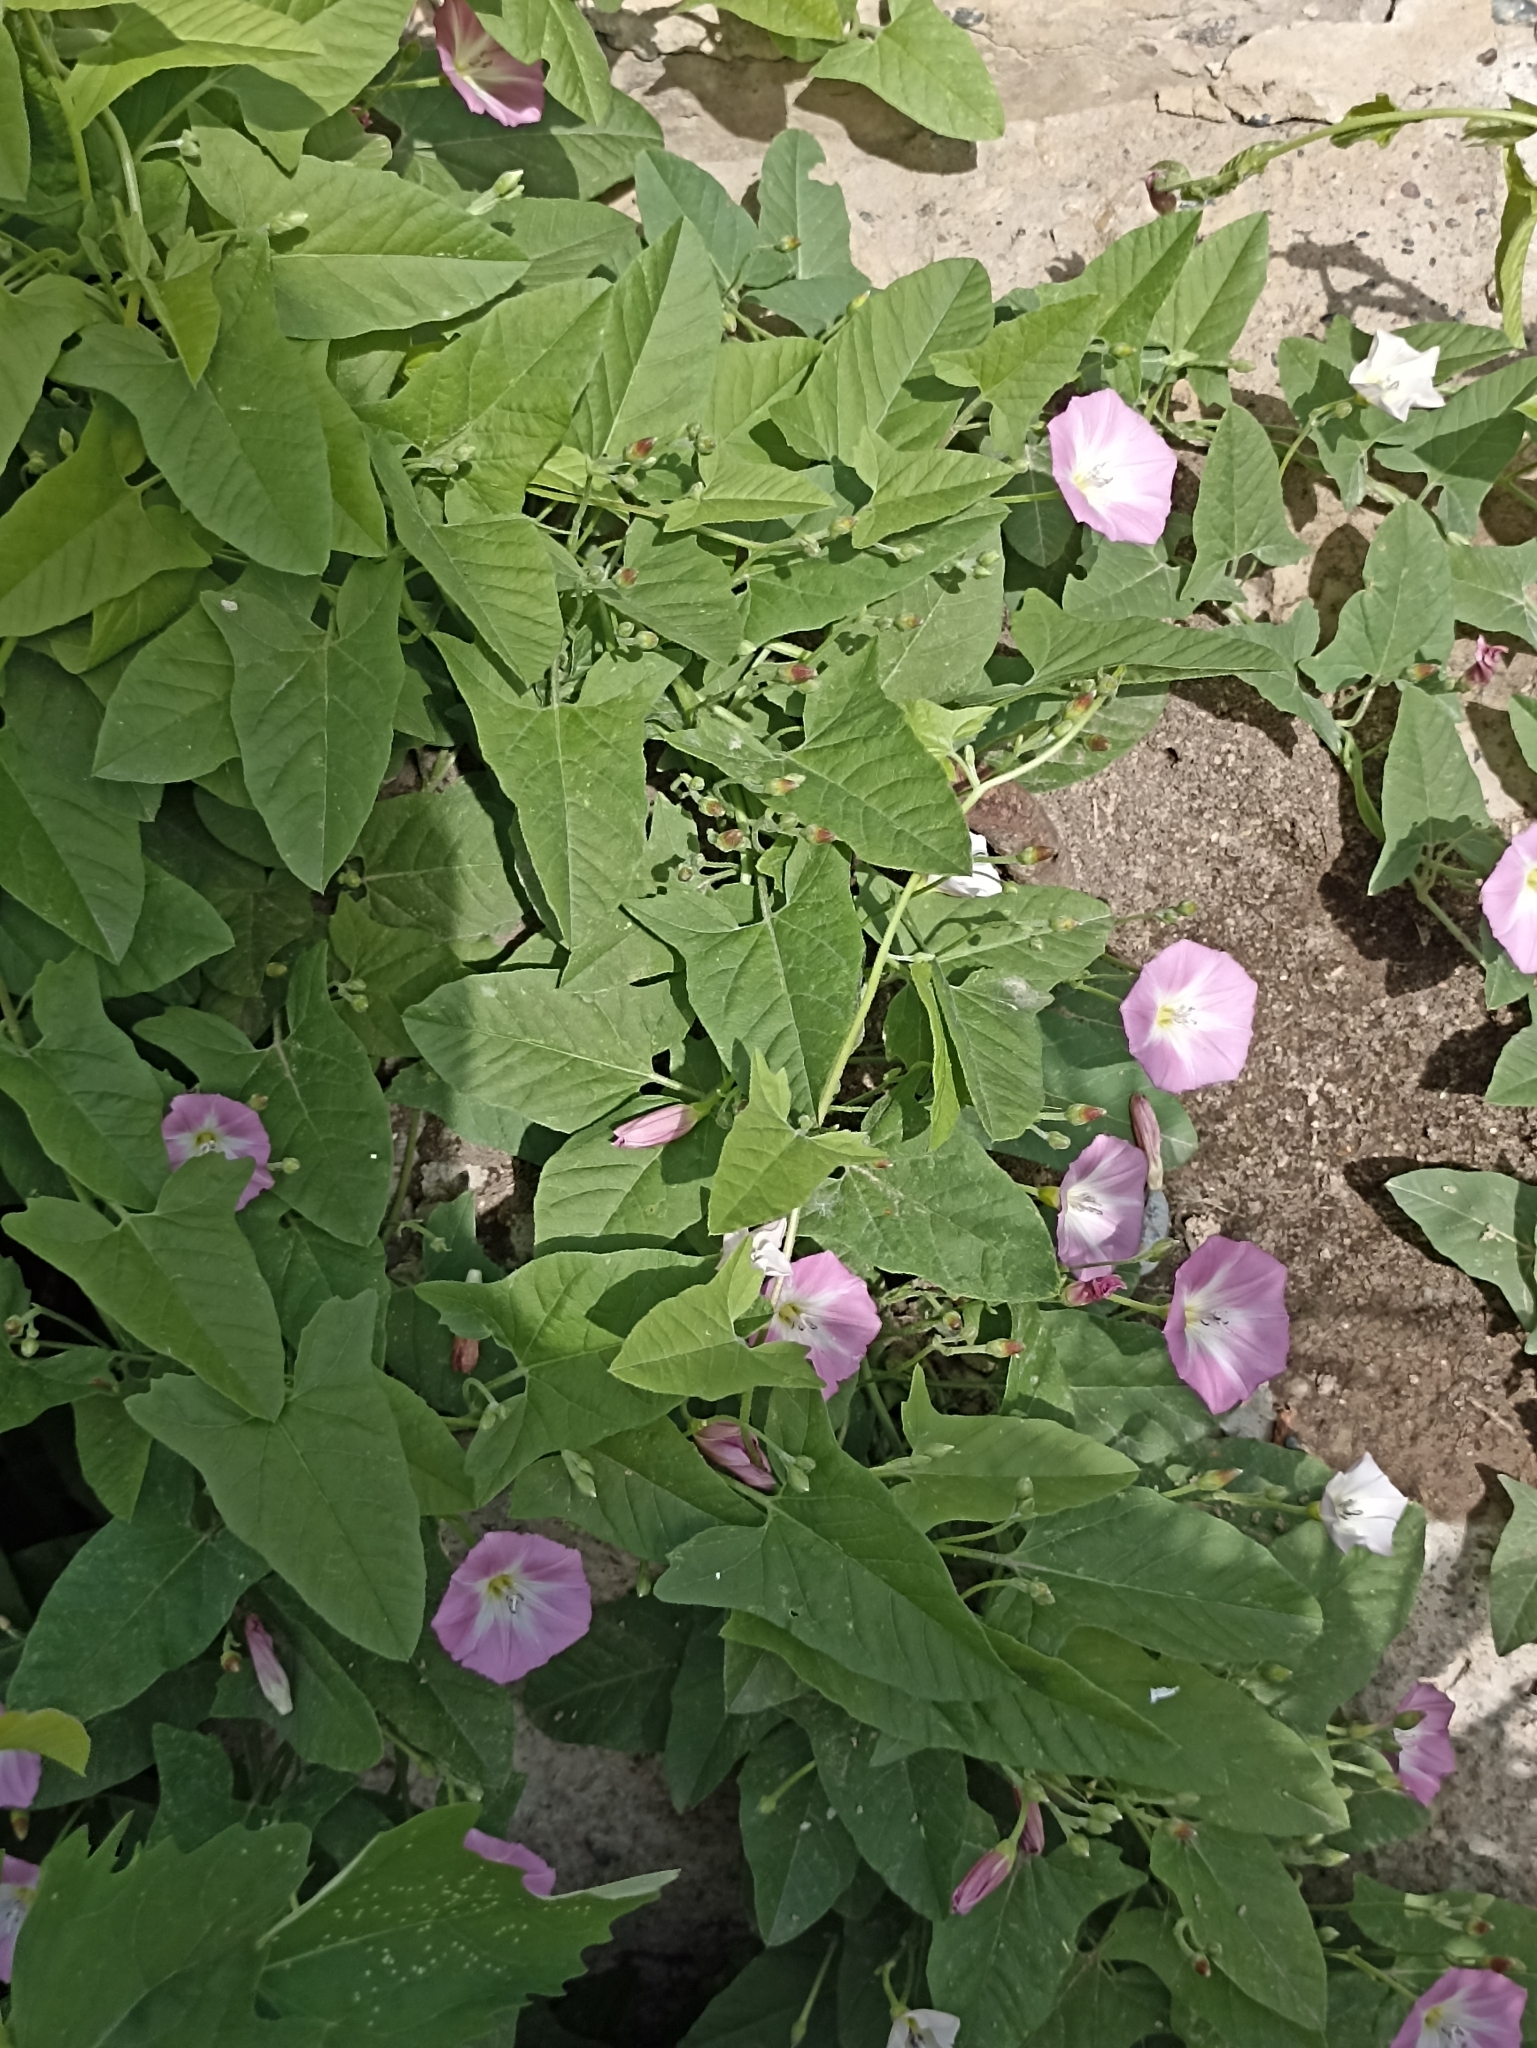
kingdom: Plantae
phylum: Tracheophyta
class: Magnoliopsida
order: Solanales
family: Convolvulaceae
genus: Convolvulus
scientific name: Convolvulus arvensis
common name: Field bindweed
